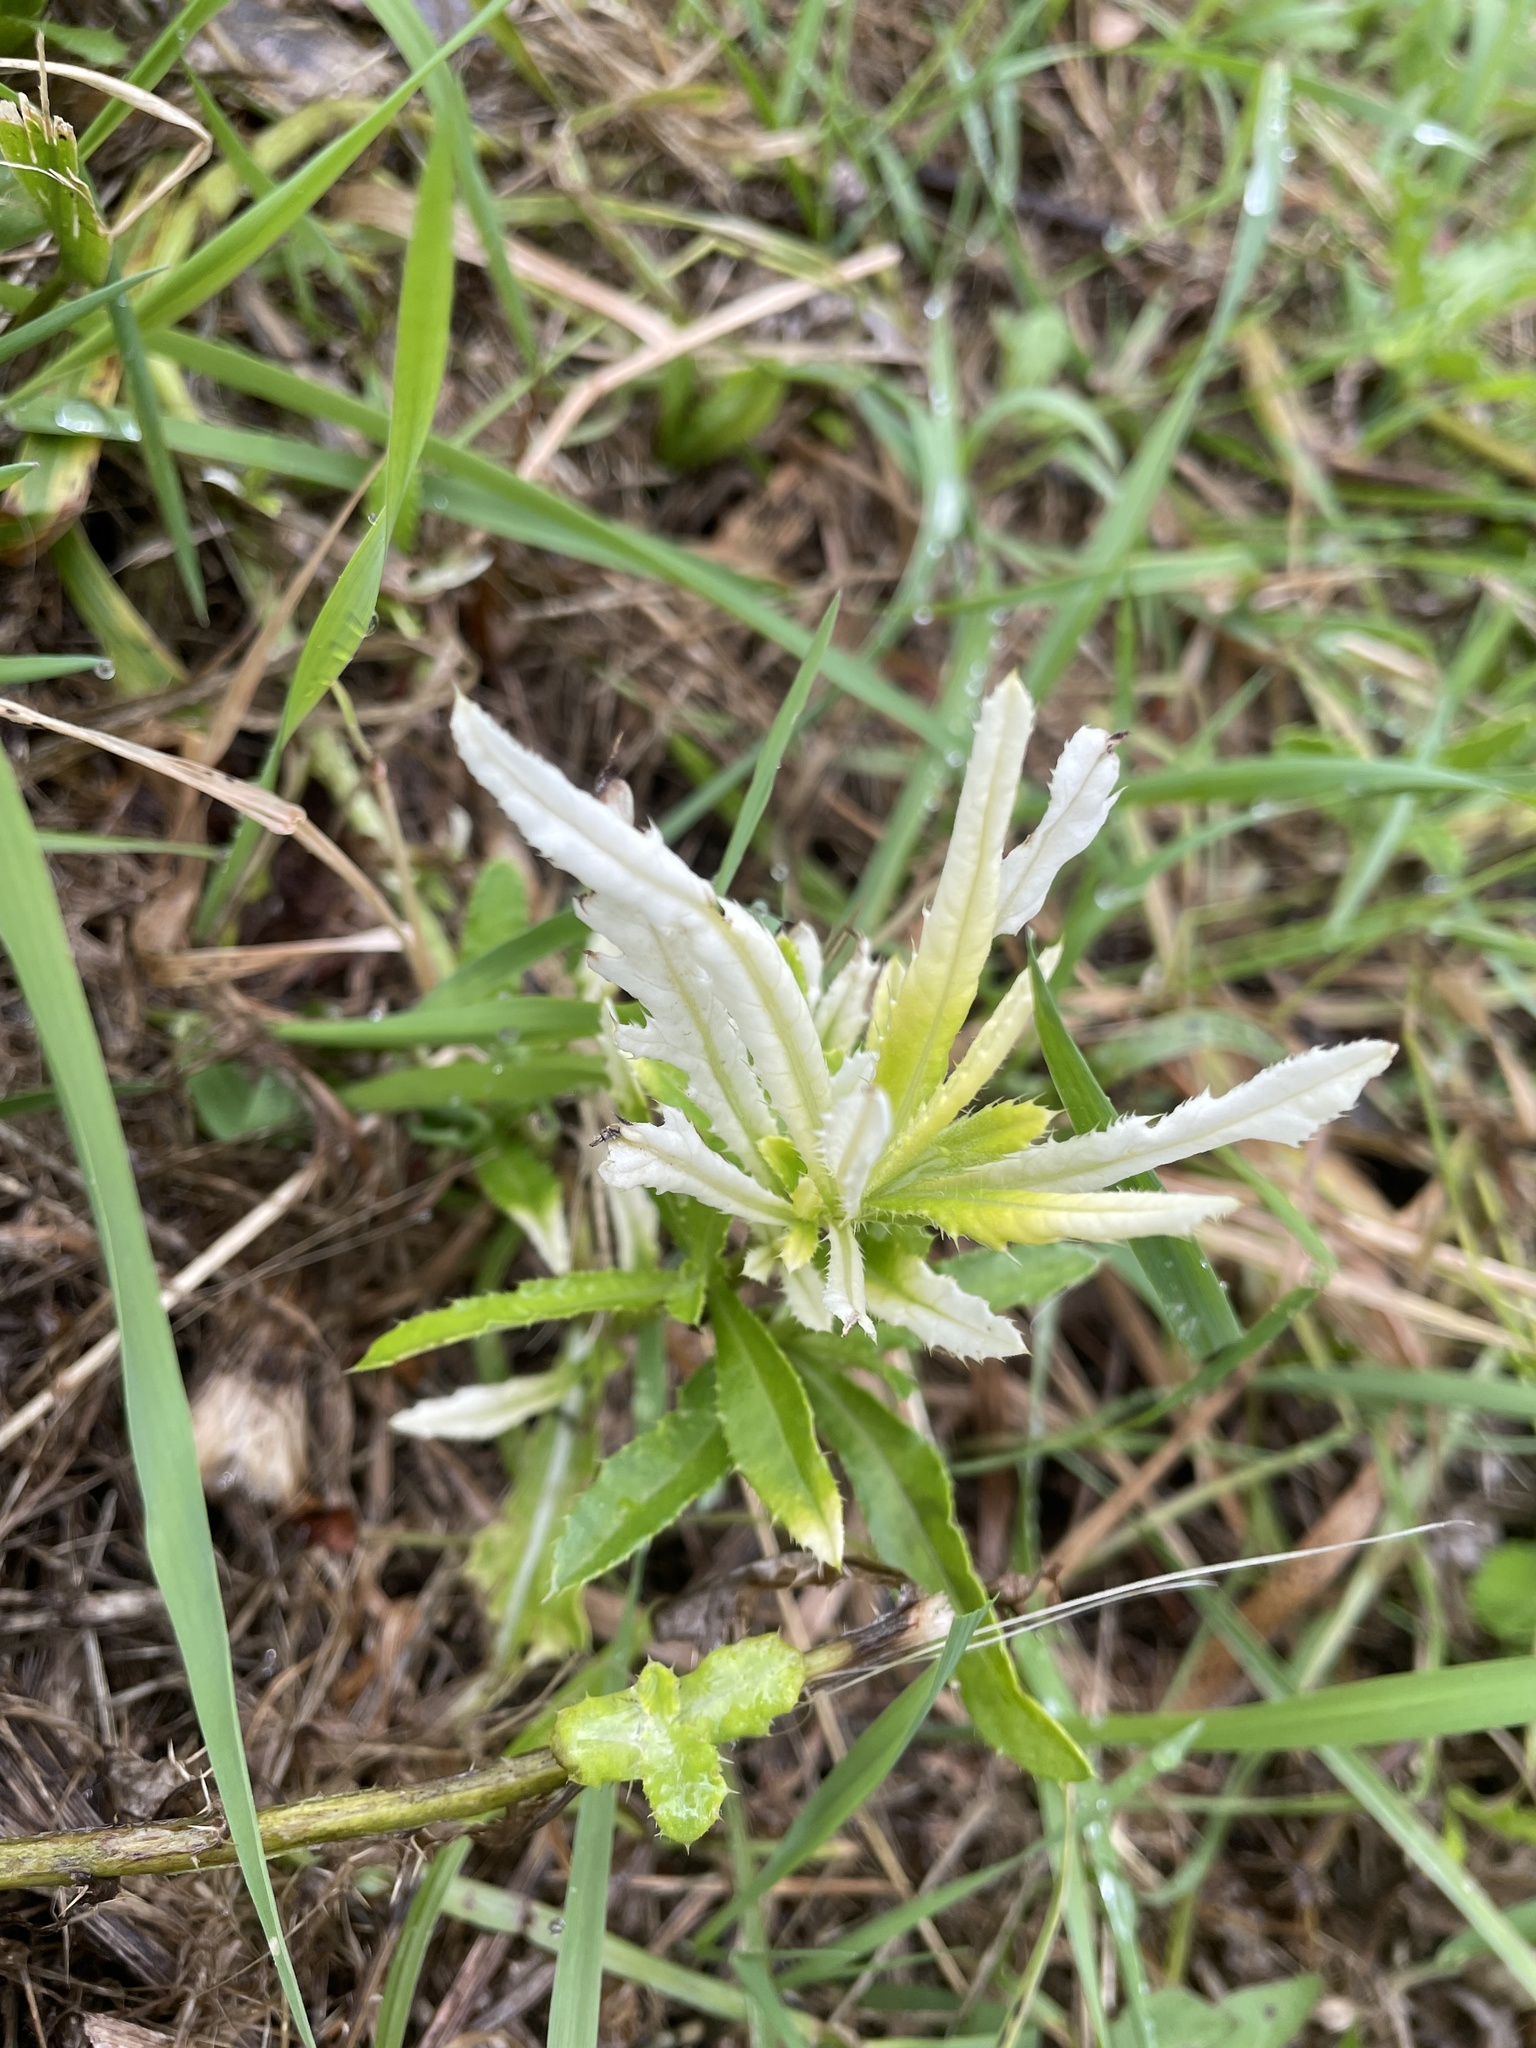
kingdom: Bacteria
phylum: Proteobacteria
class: Gammaproteobacteria
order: Pseudomonadales
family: Pseudomonadaceae
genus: Pseudomonas
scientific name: Pseudomonas syringae
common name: Bacterial speck
